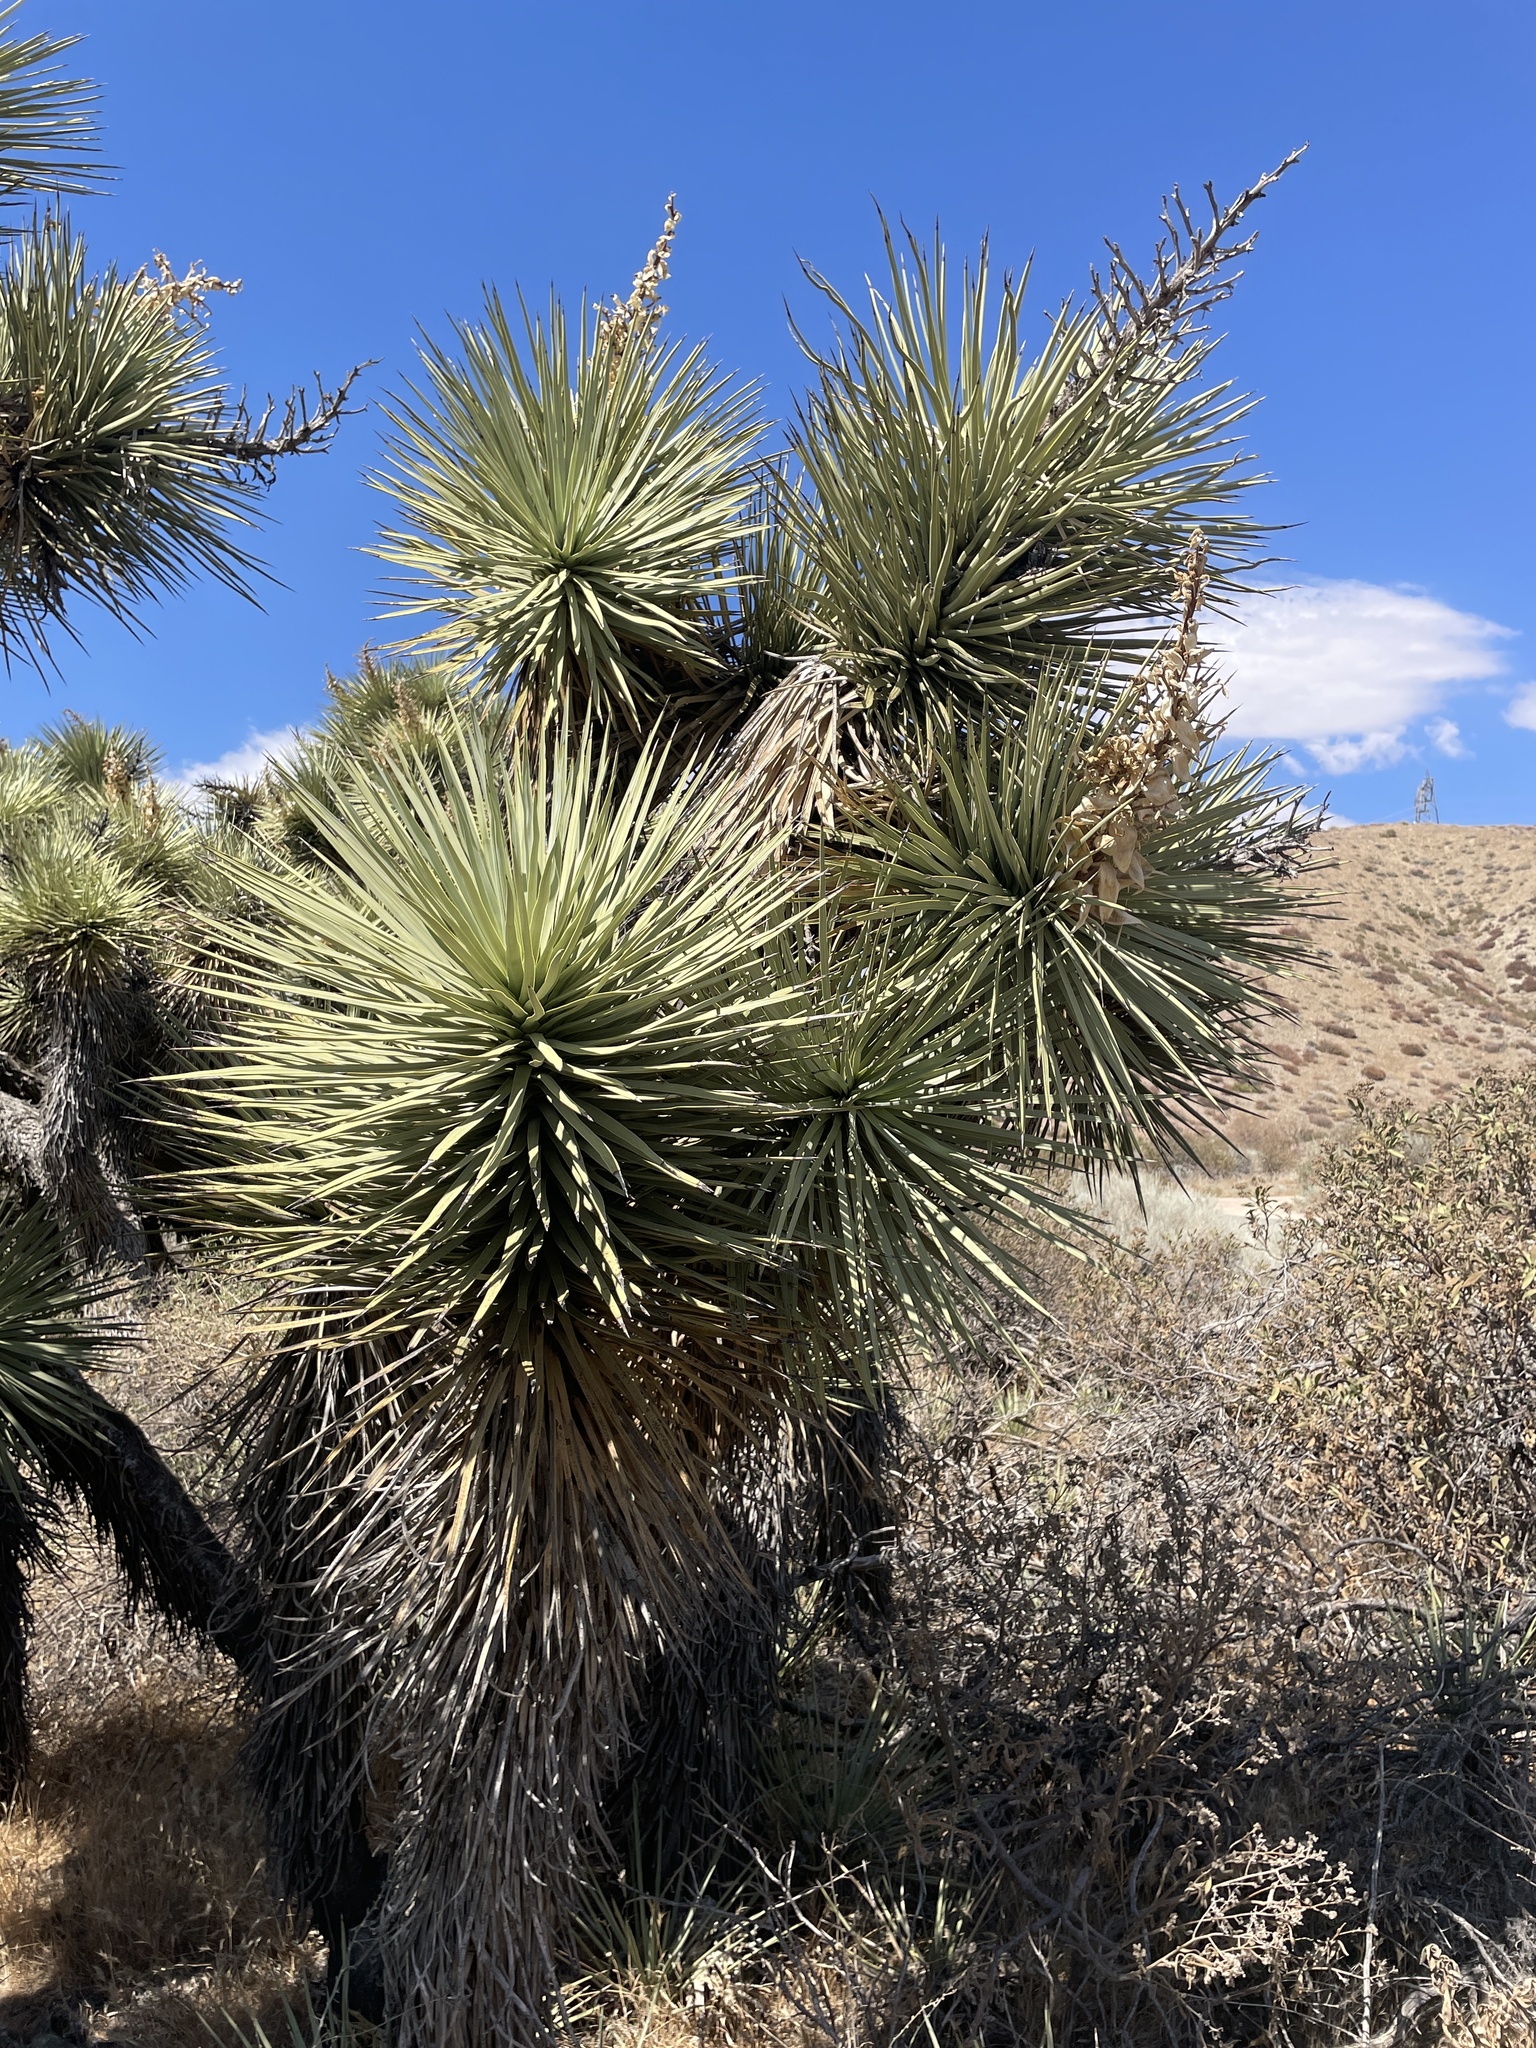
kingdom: Plantae
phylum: Tracheophyta
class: Liliopsida
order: Asparagales
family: Asparagaceae
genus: Yucca
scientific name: Yucca brevifolia
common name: Joshua tree
